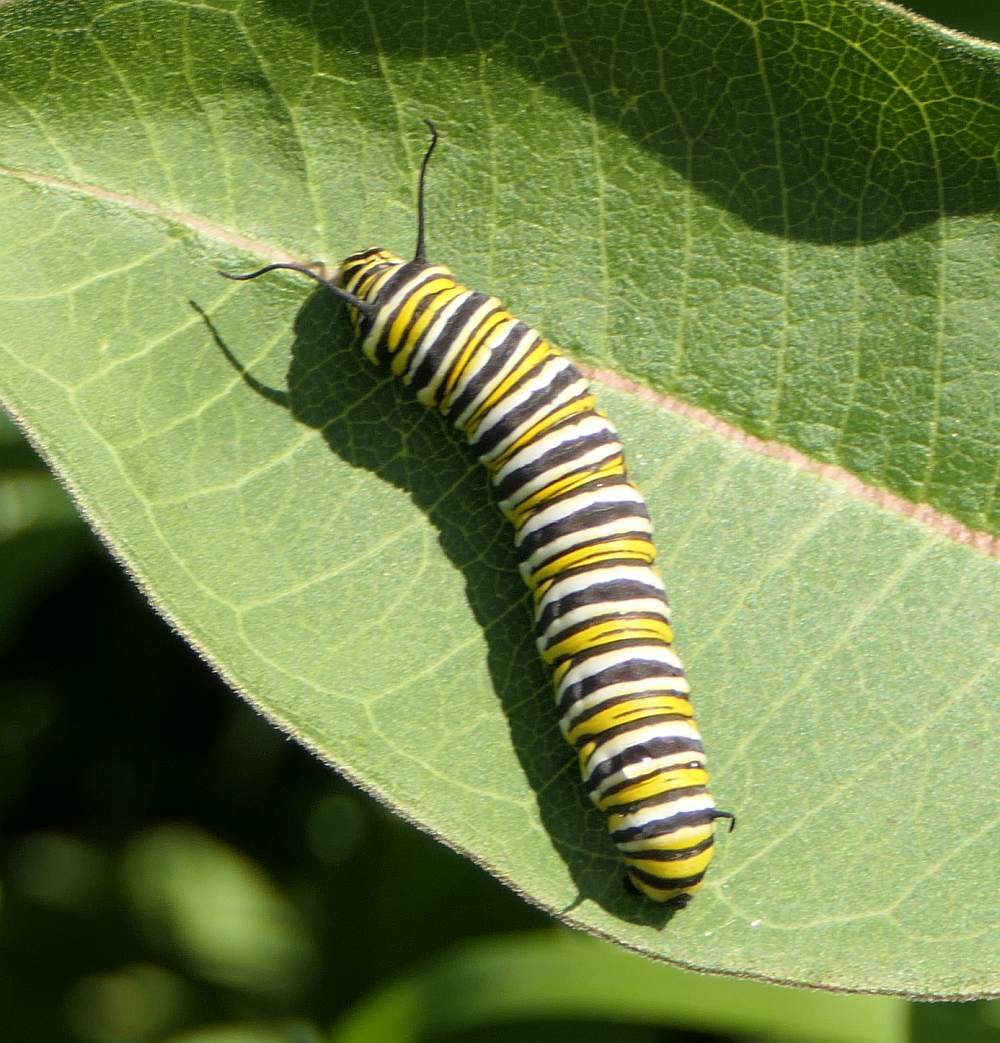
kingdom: Animalia
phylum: Arthropoda
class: Insecta
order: Lepidoptera
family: Nymphalidae
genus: Danaus
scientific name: Danaus plexippus
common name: Monarch
